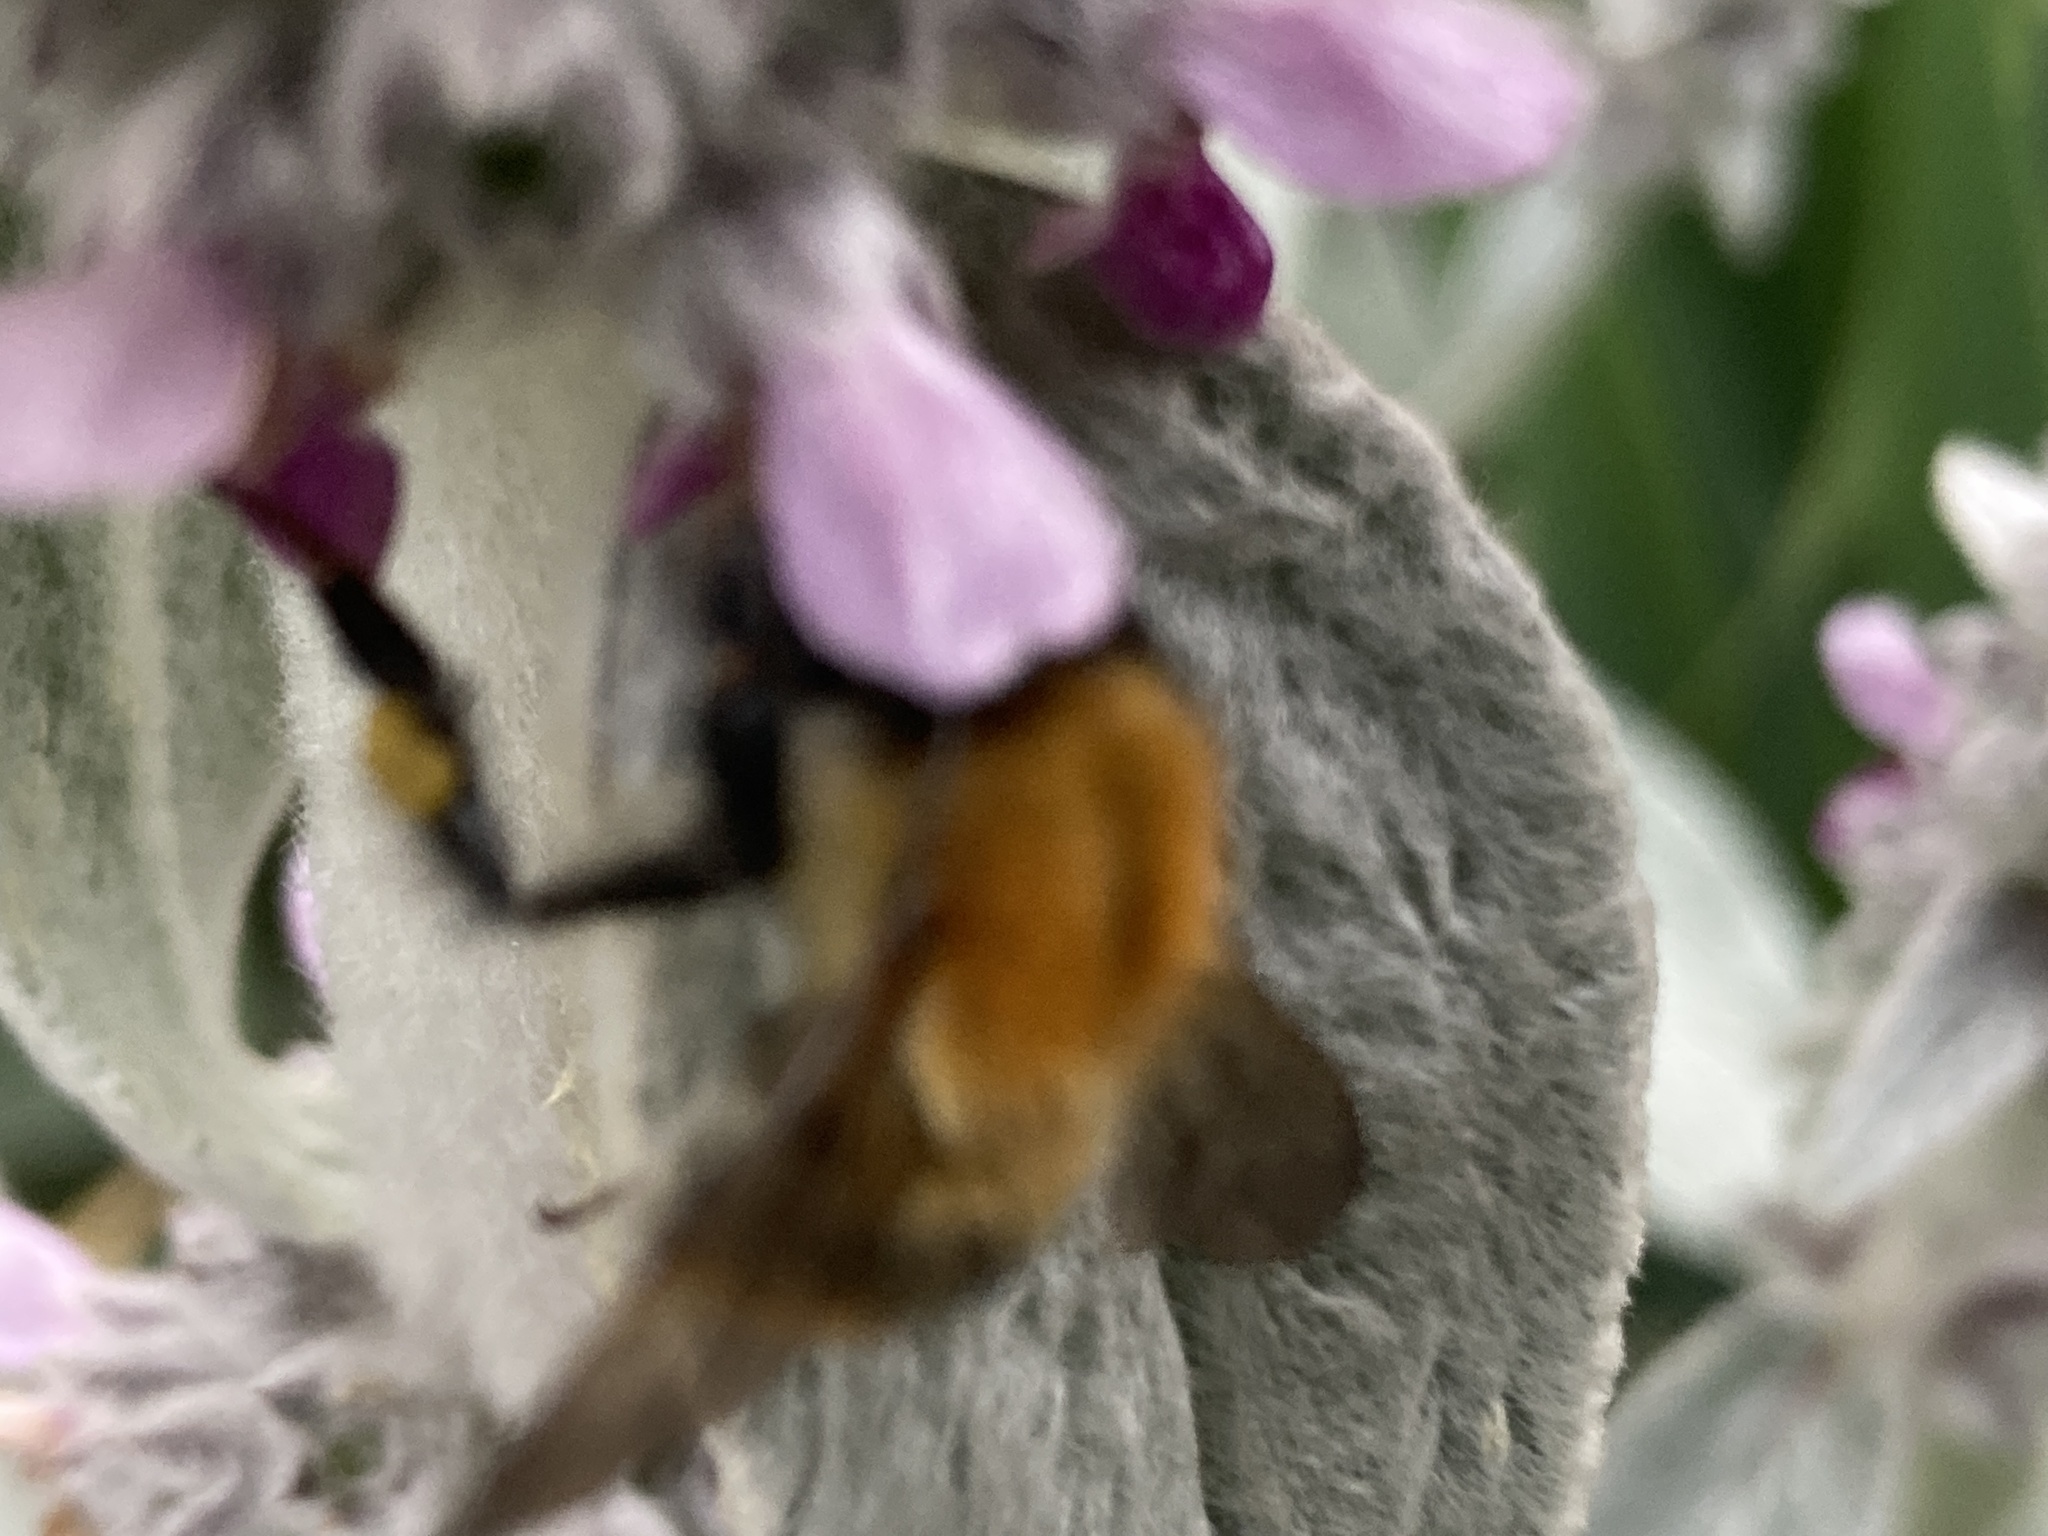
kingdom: Animalia
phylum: Arthropoda
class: Insecta
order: Hymenoptera
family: Apidae
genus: Bombus
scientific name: Bombus pascuorum
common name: Common carder bee
